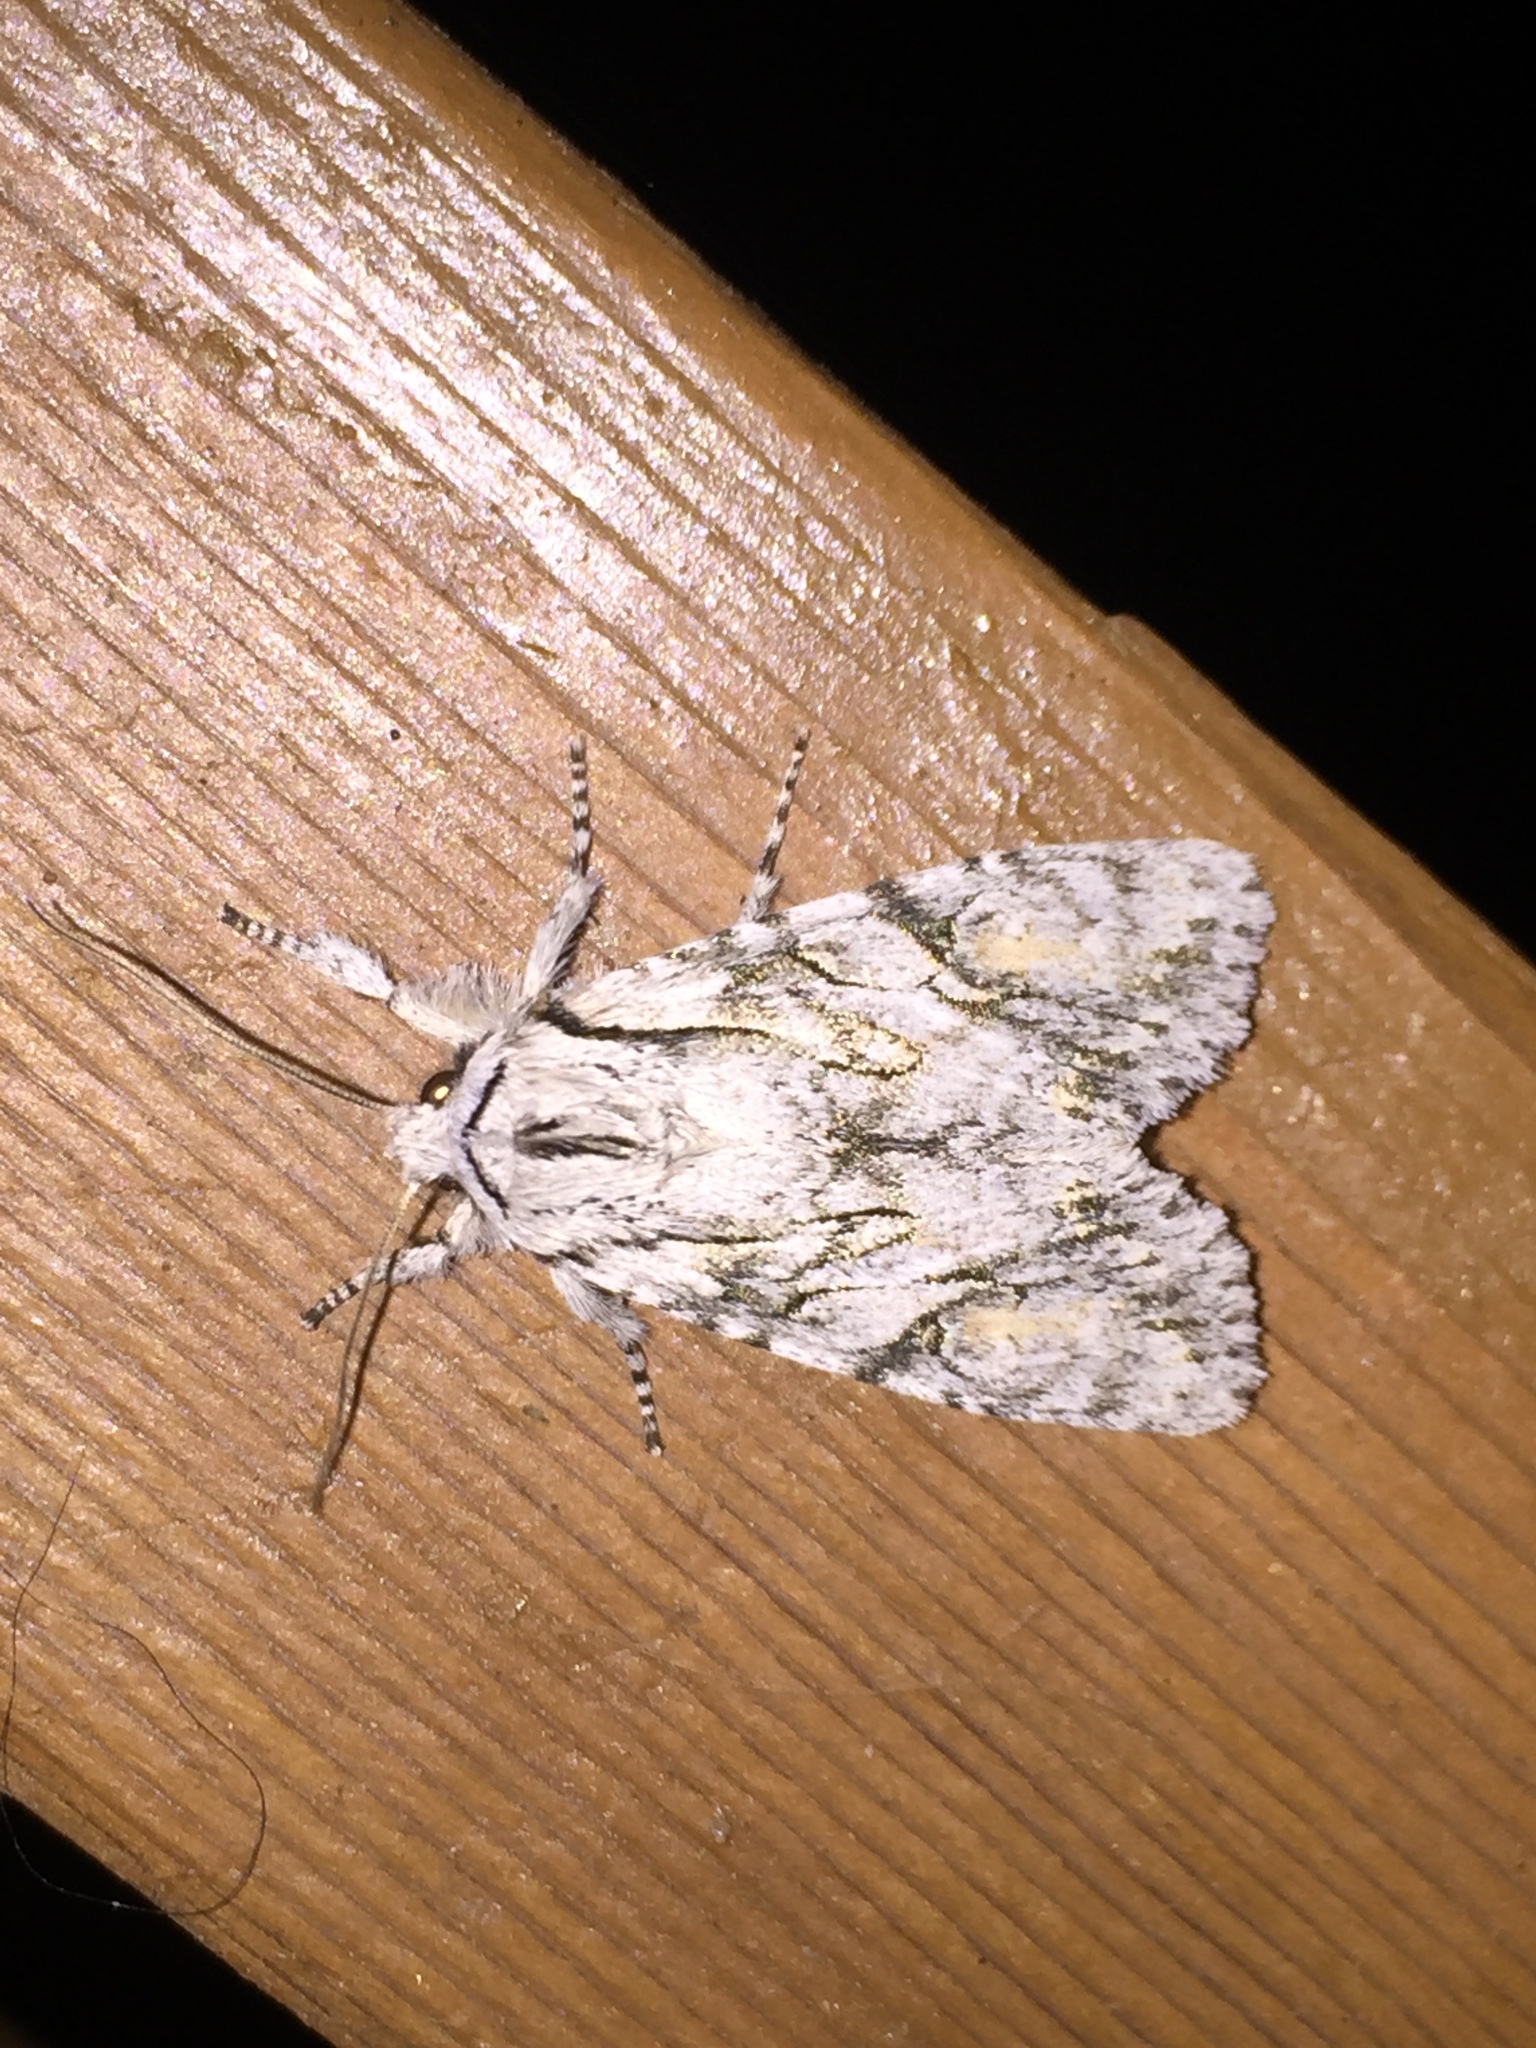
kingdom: Animalia
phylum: Arthropoda
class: Insecta
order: Lepidoptera
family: Noctuidae
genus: Egira
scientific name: Egira crucialis
